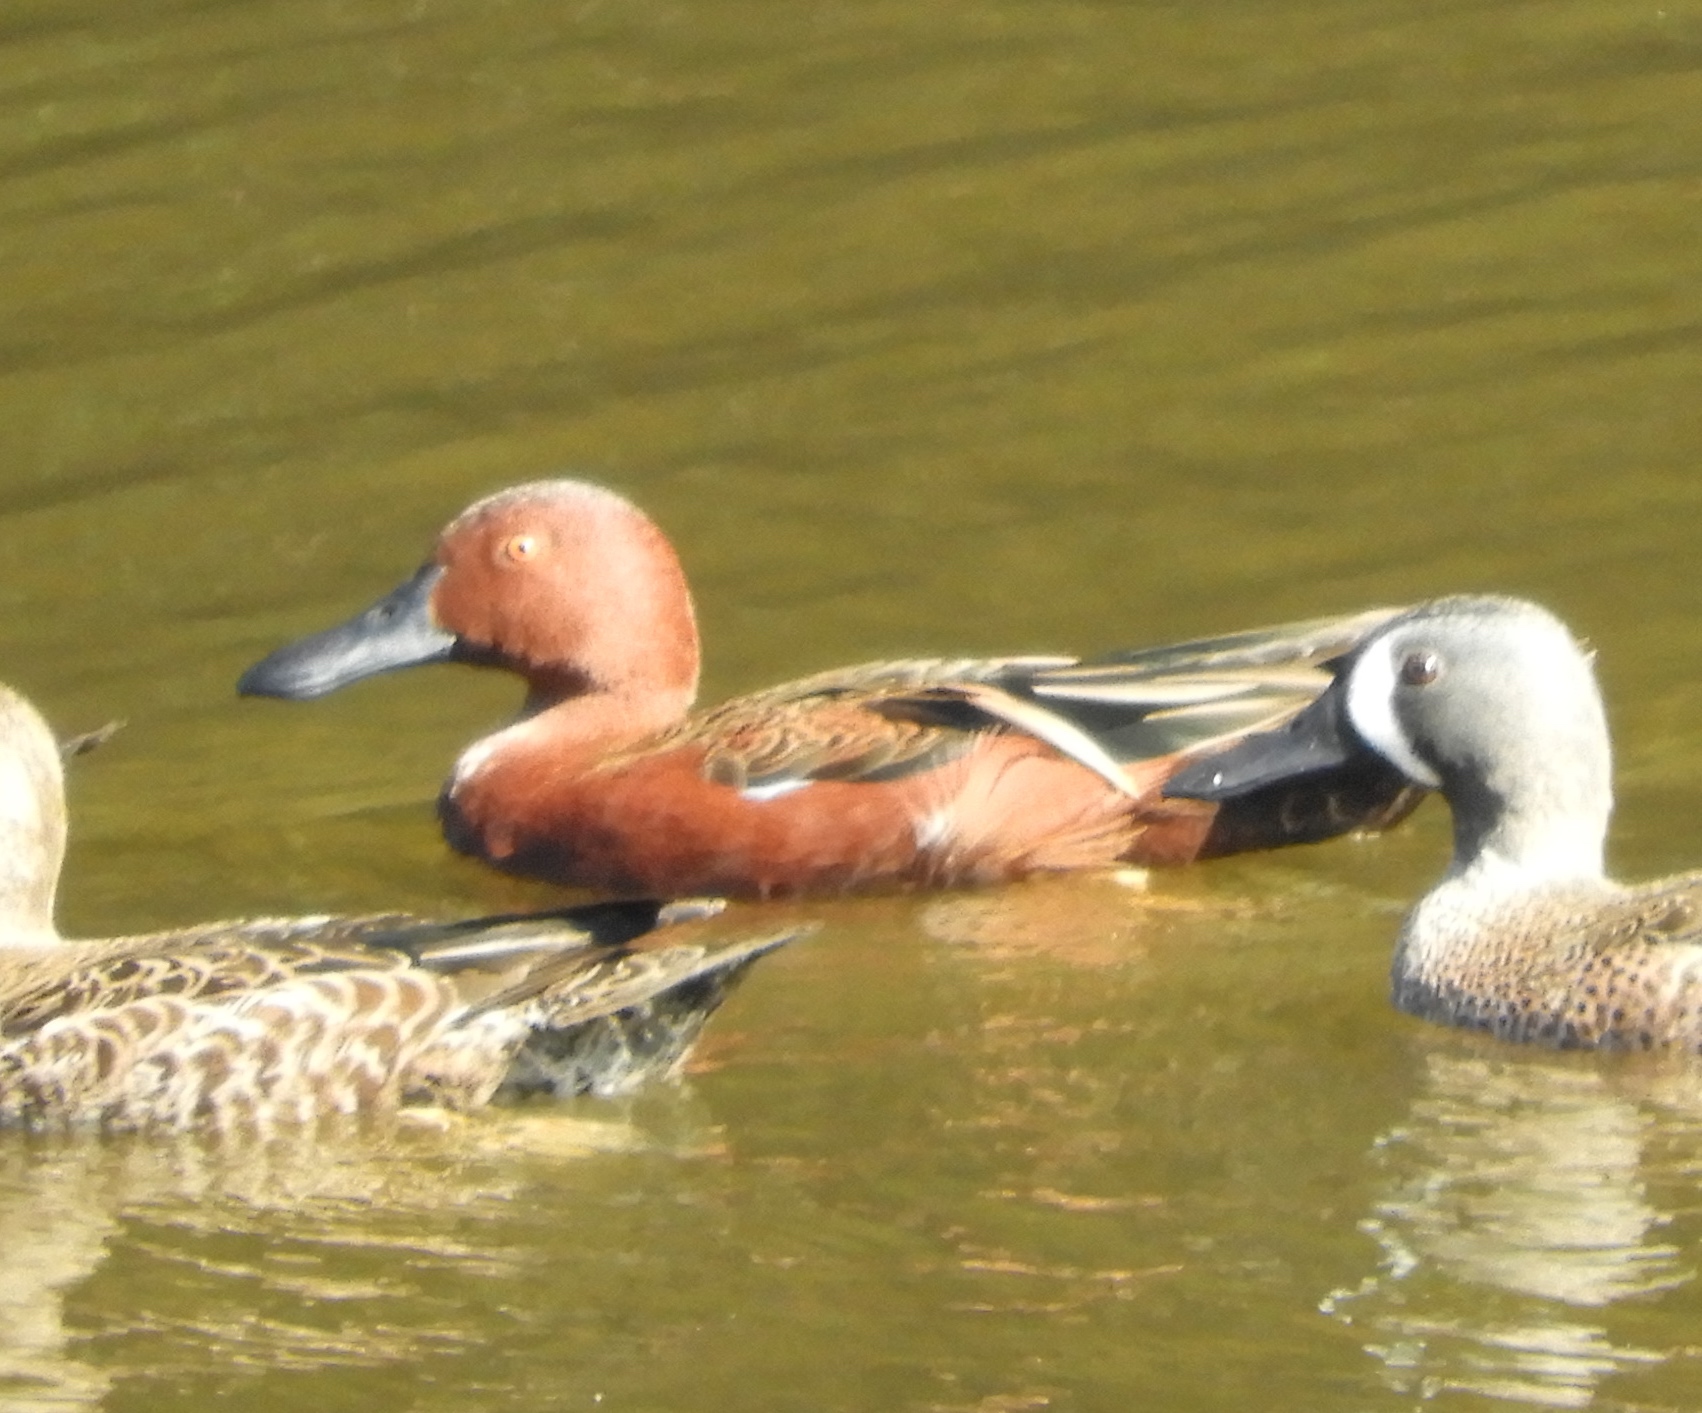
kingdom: Animalia
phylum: Chordata
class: Aves
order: Anseriformes
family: Anatidae
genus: Spatula
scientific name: Spatula cyanoptera
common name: Cinnamon teal
